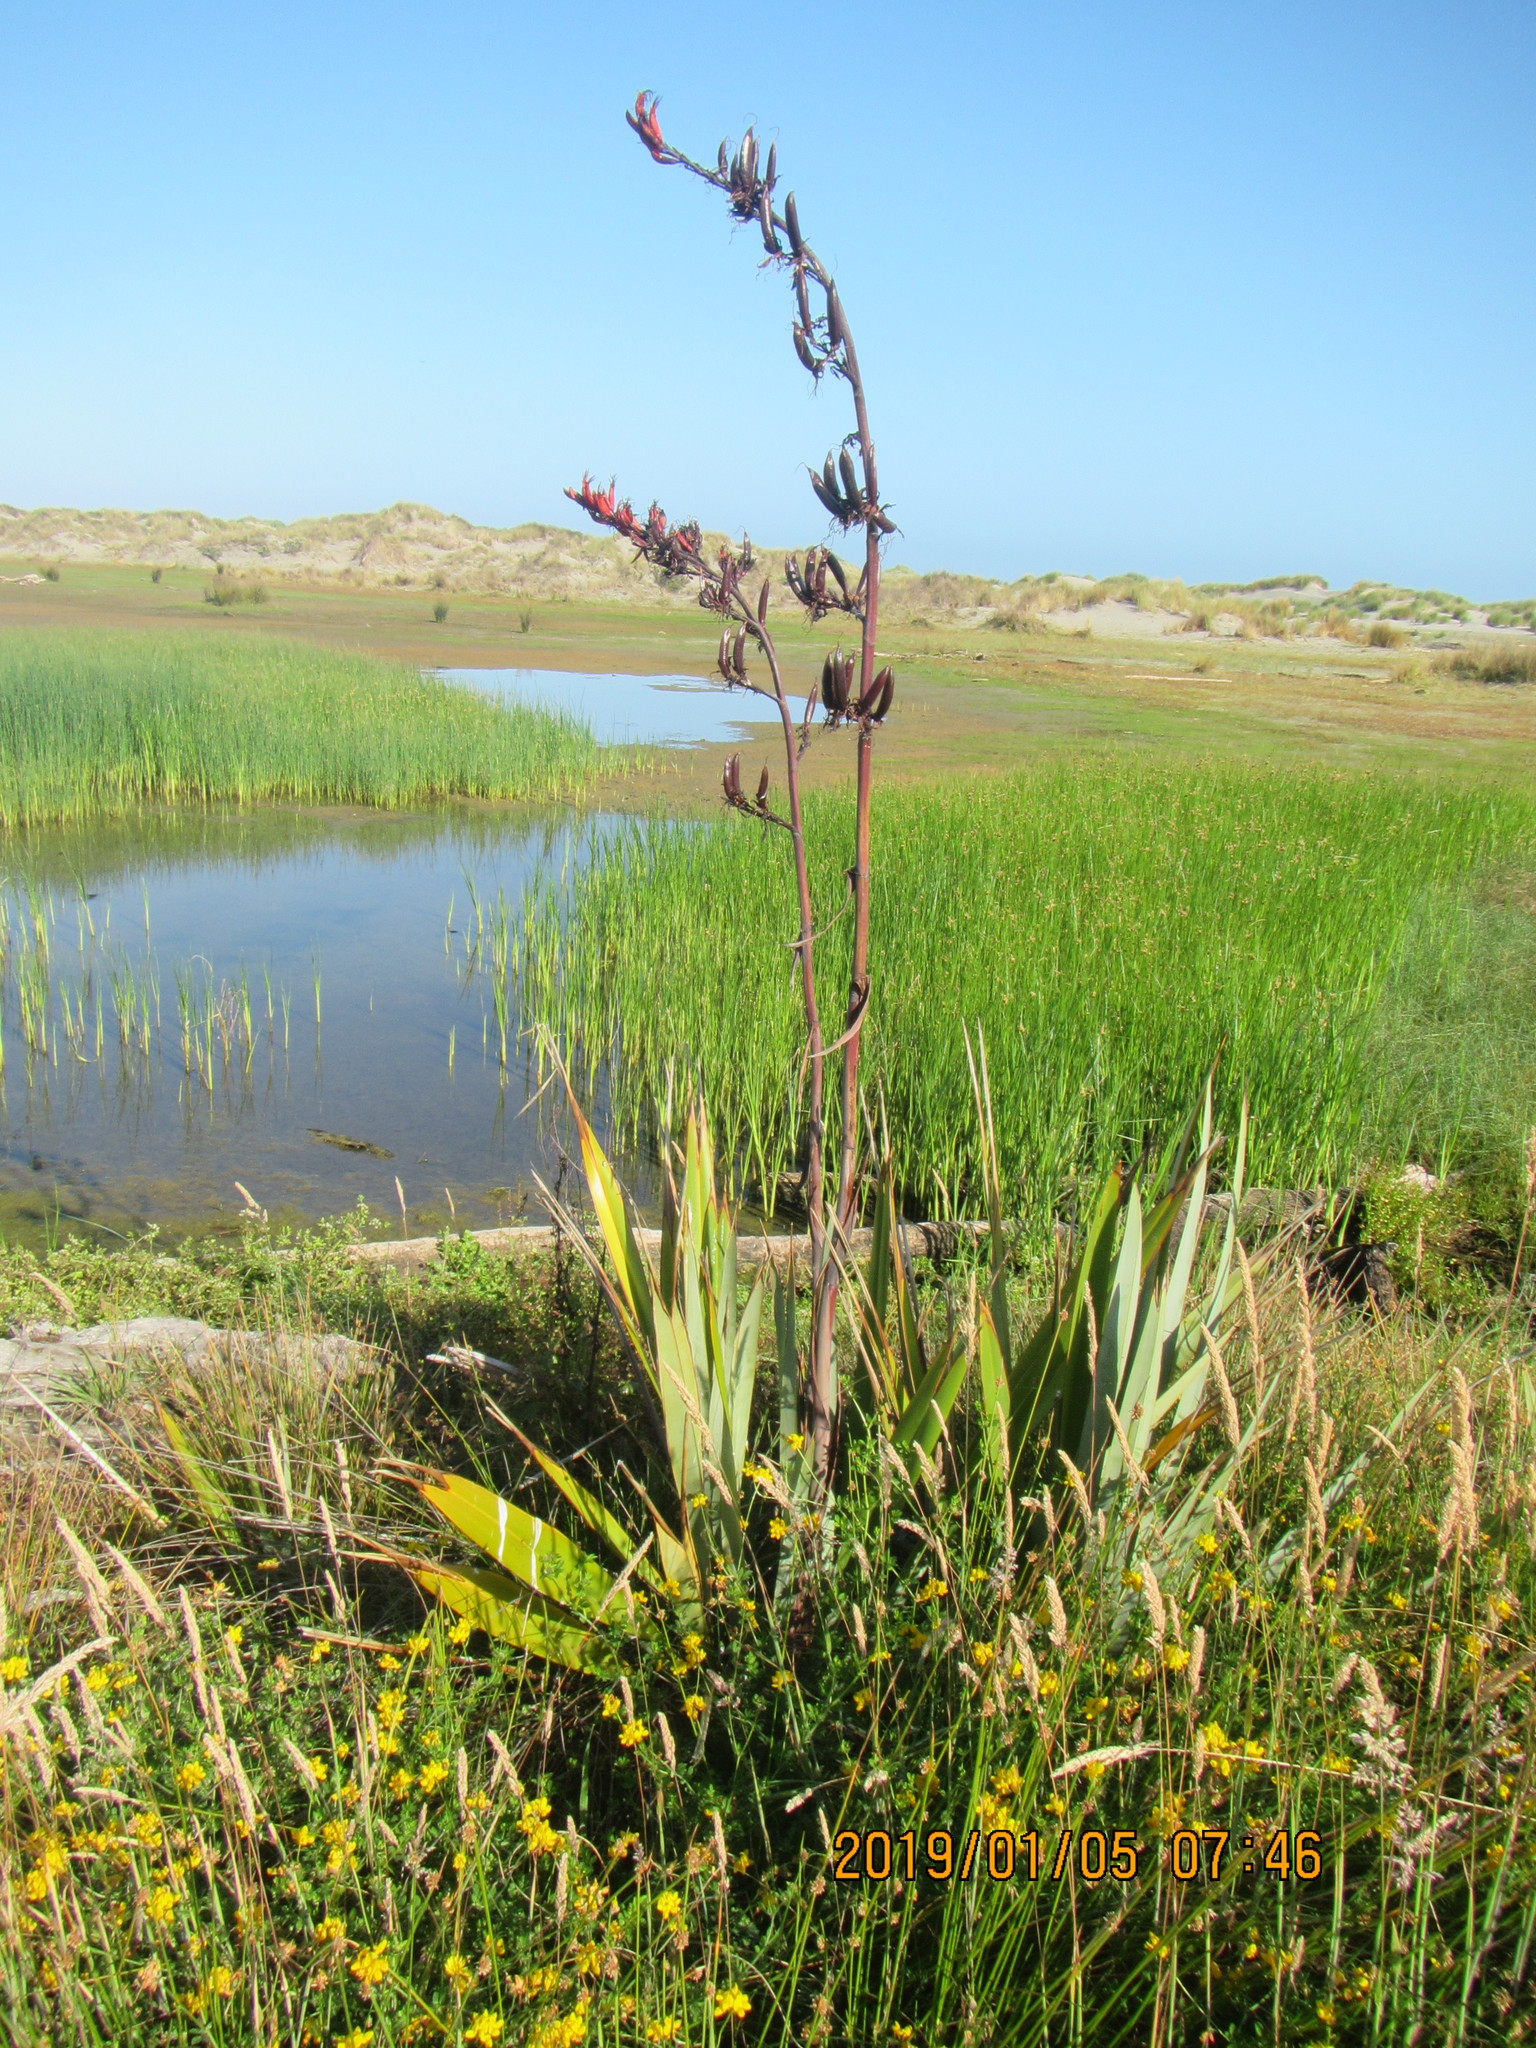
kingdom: Plantae
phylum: Tracheophyta
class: Liliopsida
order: Asparagales
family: Asphodelaceae
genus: Phormium
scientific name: Phormium tenax
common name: New zealand flax
